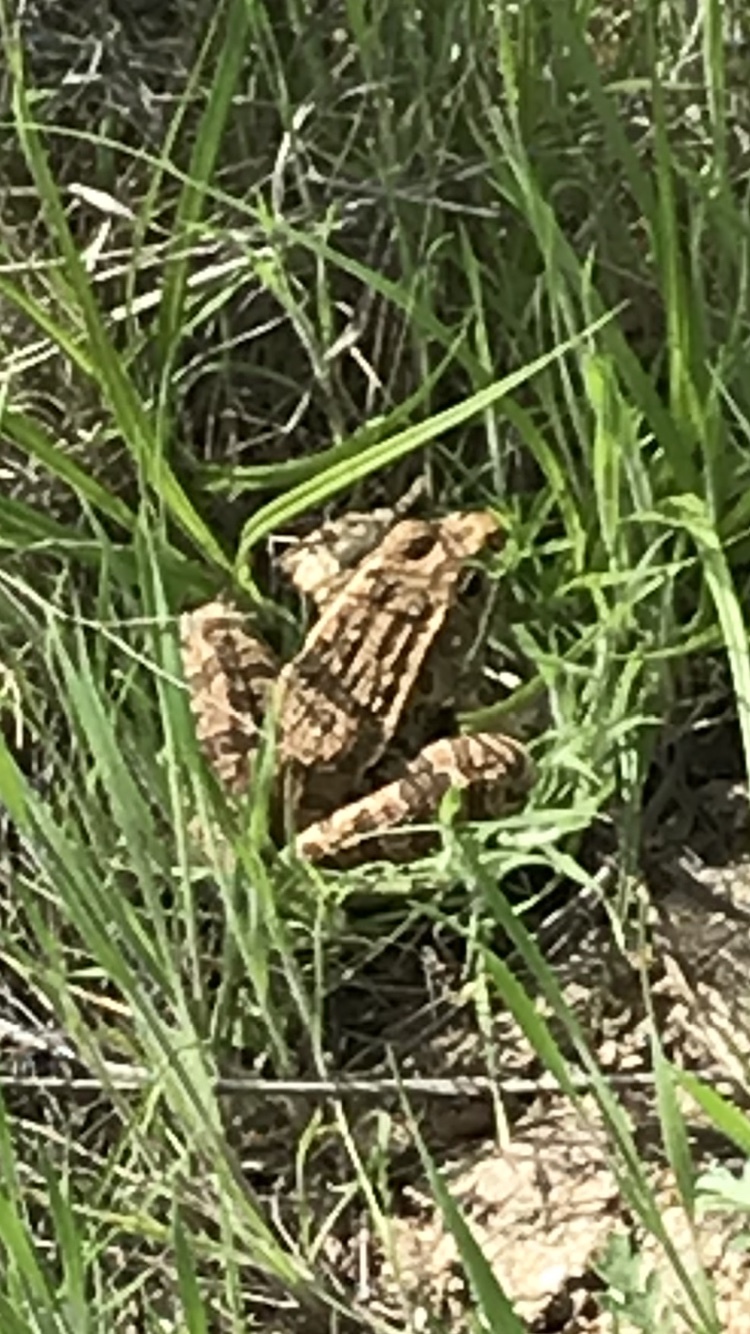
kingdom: Animalia
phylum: Chordata
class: Amphibia
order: Anura
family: Ranidae
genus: Lithobates
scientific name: Lithobates blairi
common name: Plains leopard frog
